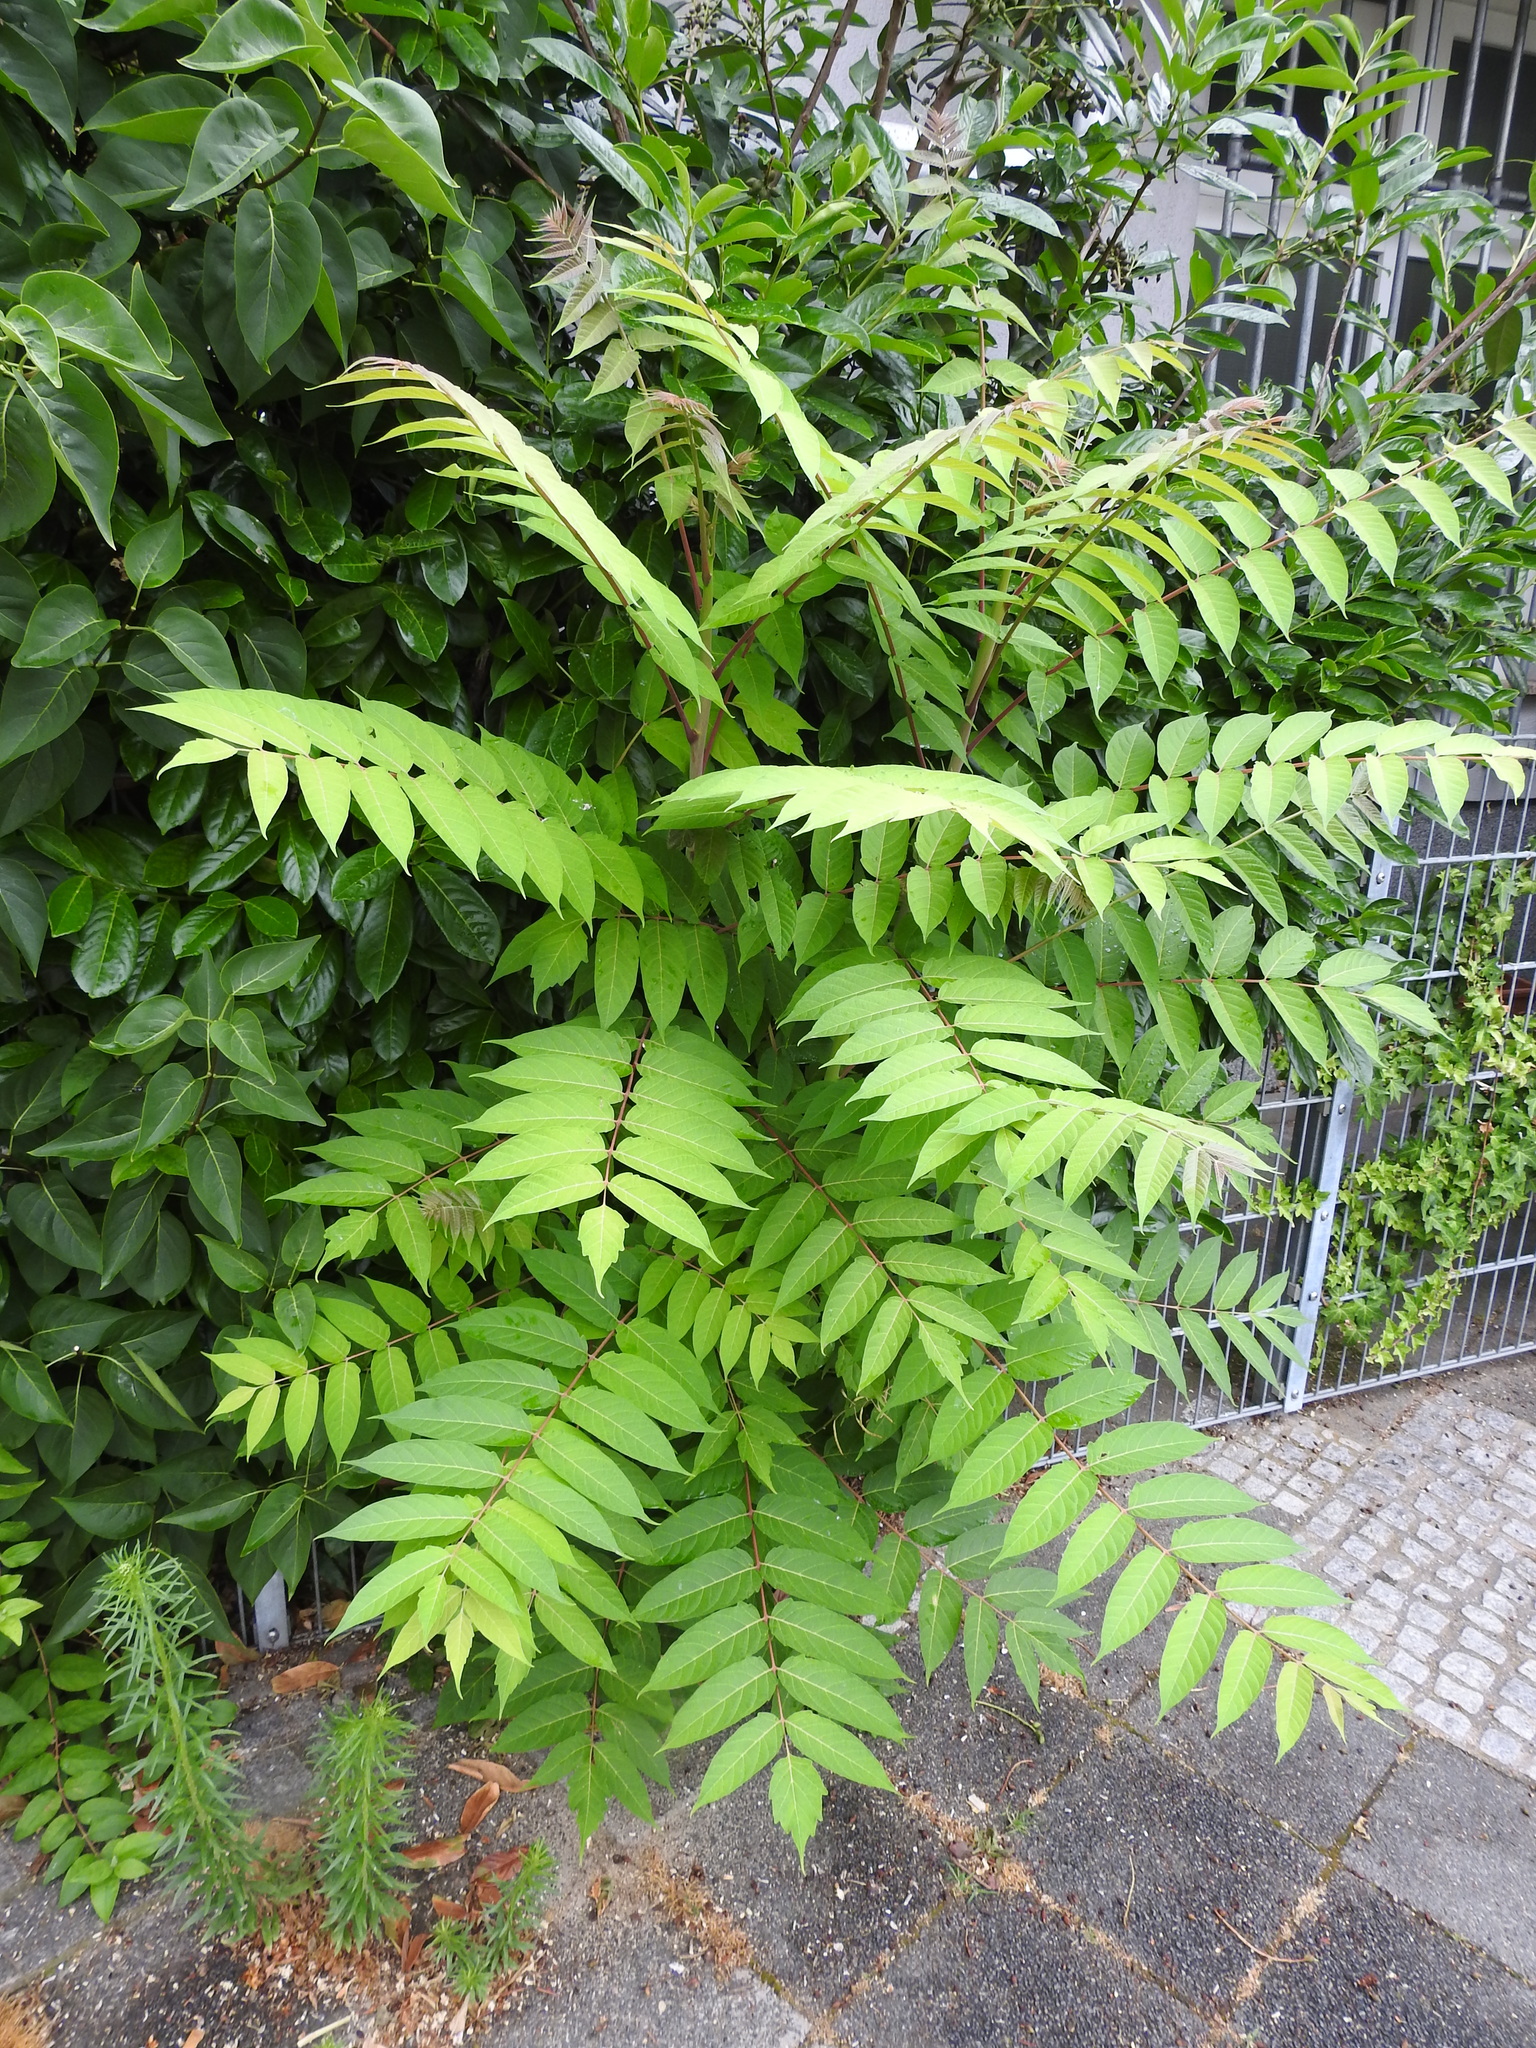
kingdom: Plantae
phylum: Tracheophyta
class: Magnoliopsida
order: Sapindales
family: Simaroubaceae
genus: Ailanthus
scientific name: Ailanthus altissima
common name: Tree-of-heaven
